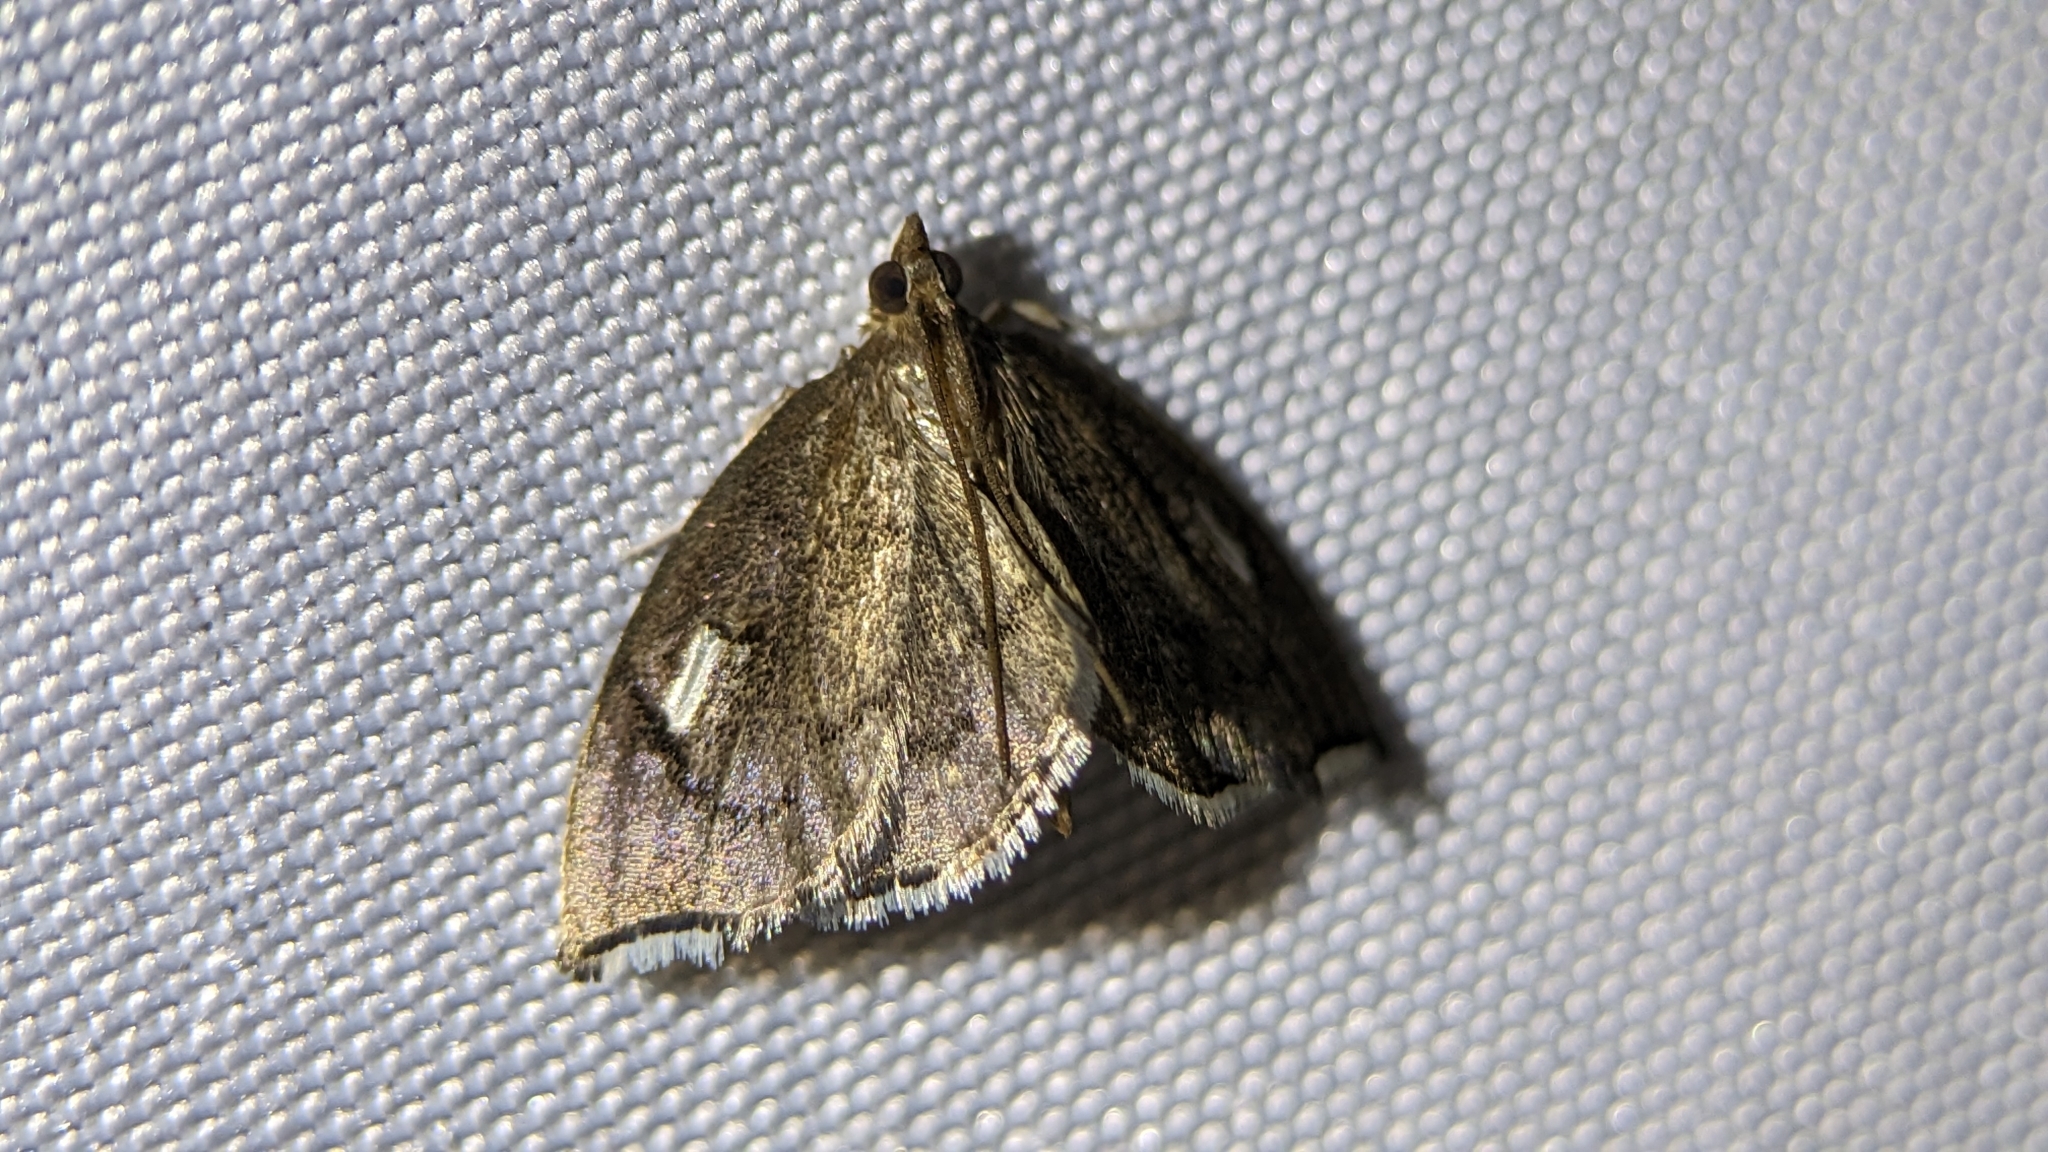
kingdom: Animalia
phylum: Arthropoda
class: Insecta
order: Lepidoptera
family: Crambidae
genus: Perispasta
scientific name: Perispasta caeculalis
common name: Titian peale's moth
